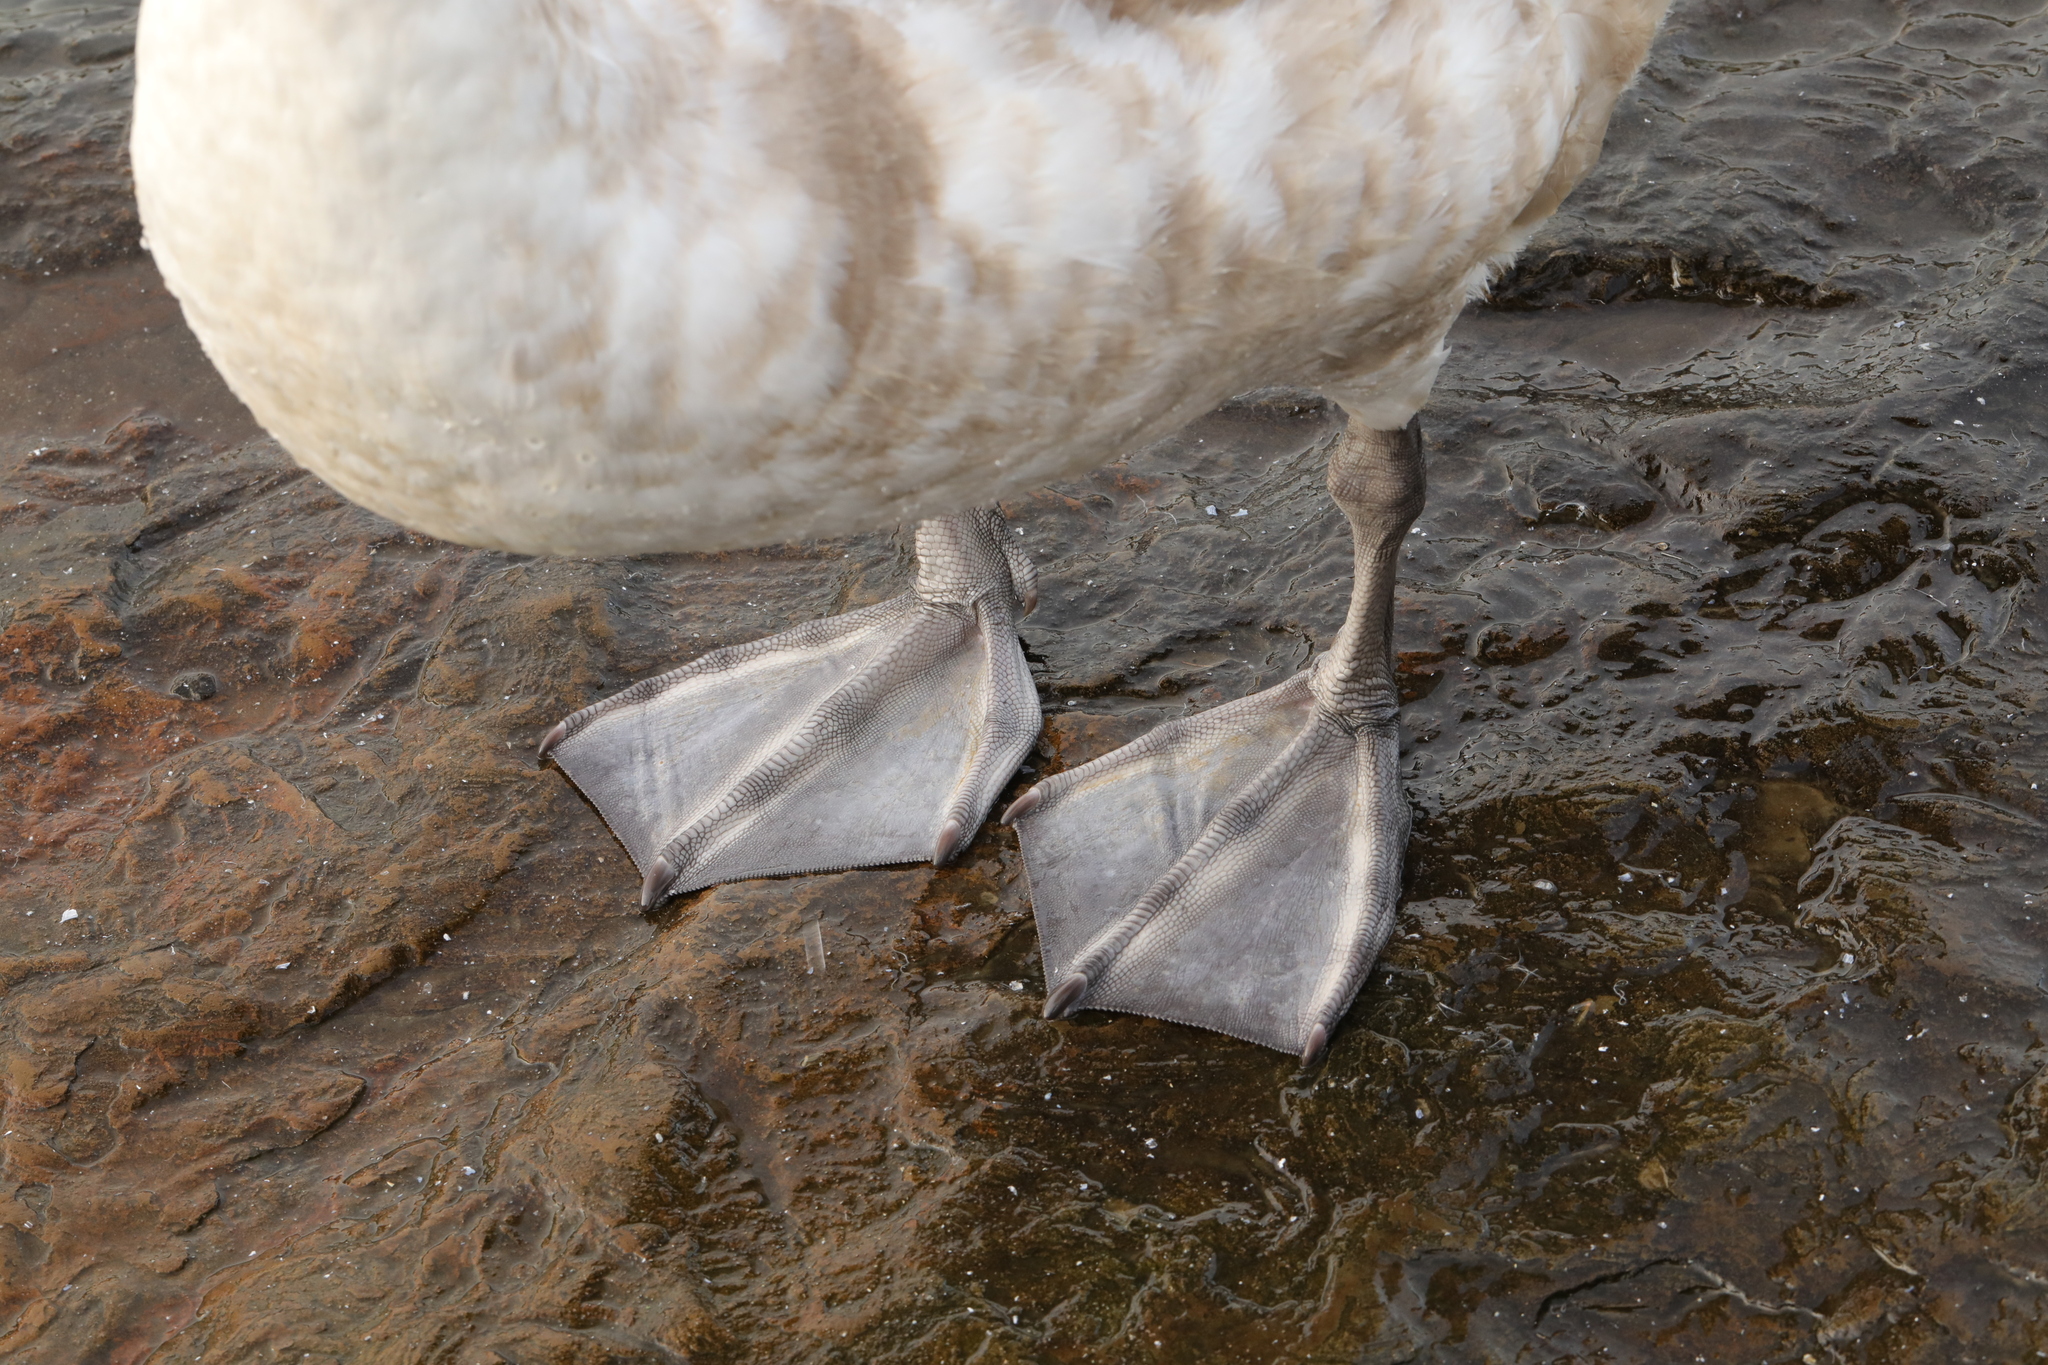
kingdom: Animalia
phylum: Chordata
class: Aves
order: Anseriformes
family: Anatidae
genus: Cygnus
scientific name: Cygnus olor
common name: Mute swan
